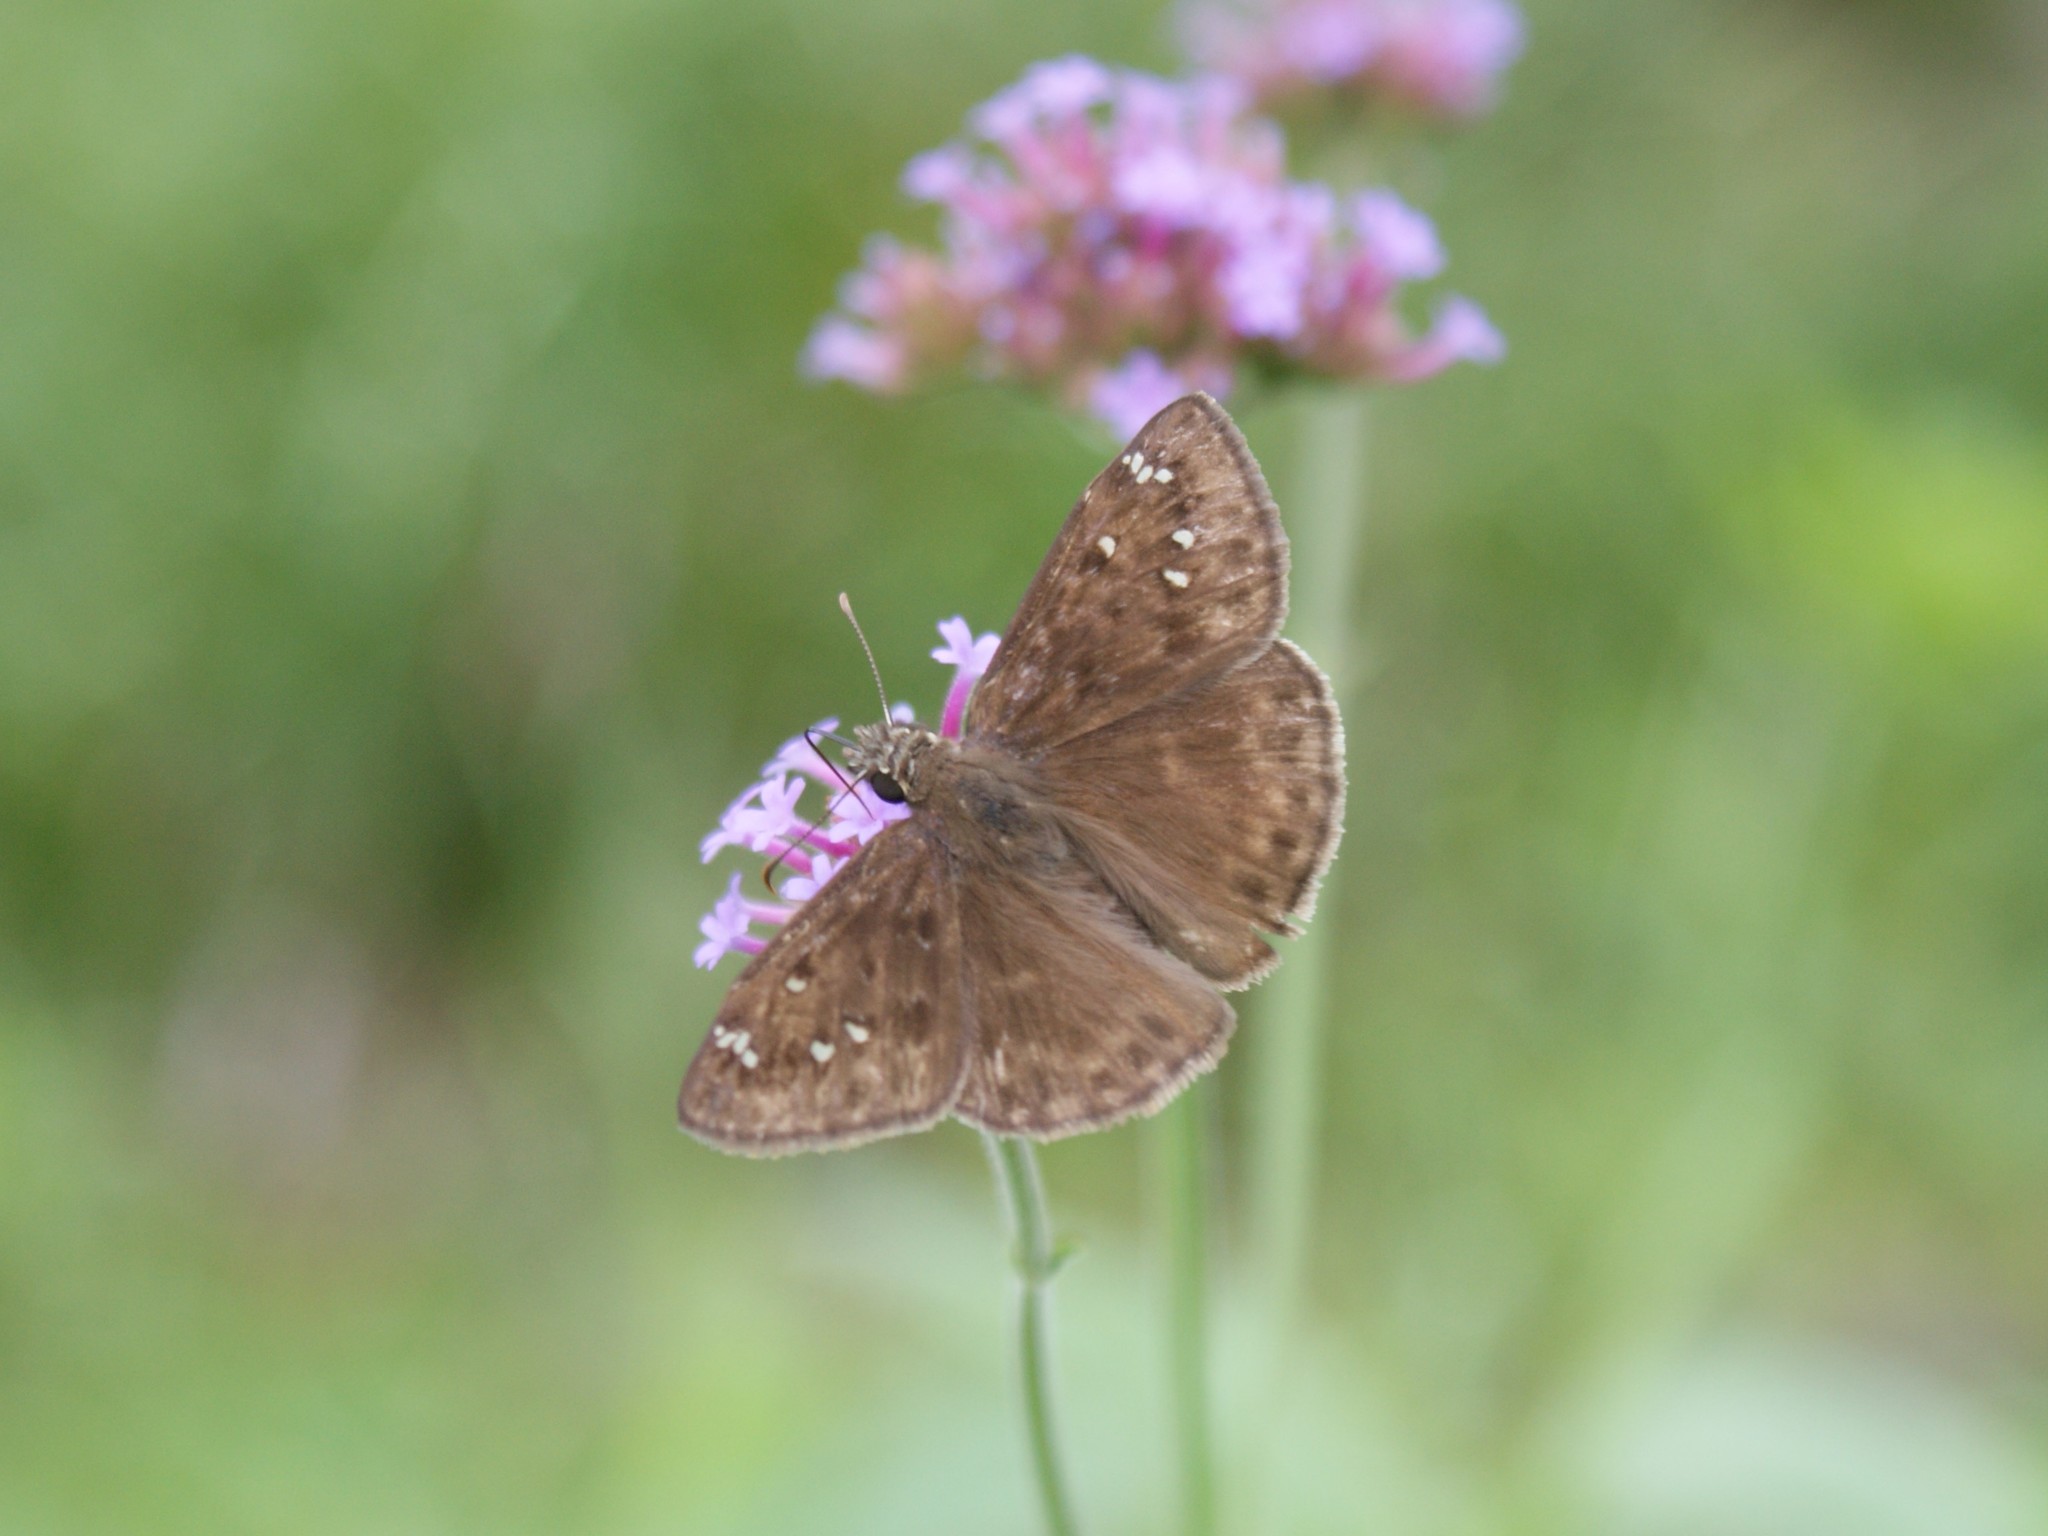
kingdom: Animalia
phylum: Arthropoda
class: Insecta
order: Lepidoptera
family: Hesperiidae
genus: Erynnis
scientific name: Erynnis horatius
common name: Horace's duskywing
